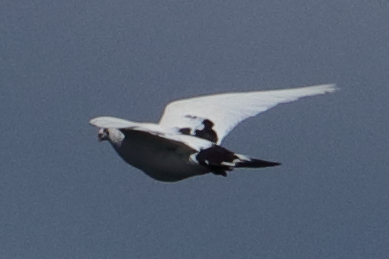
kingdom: Animalia
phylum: Chordata
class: Aves
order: Columbiformes
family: Columbidae
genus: Columba
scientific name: Columba livia
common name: Rock pigeon
